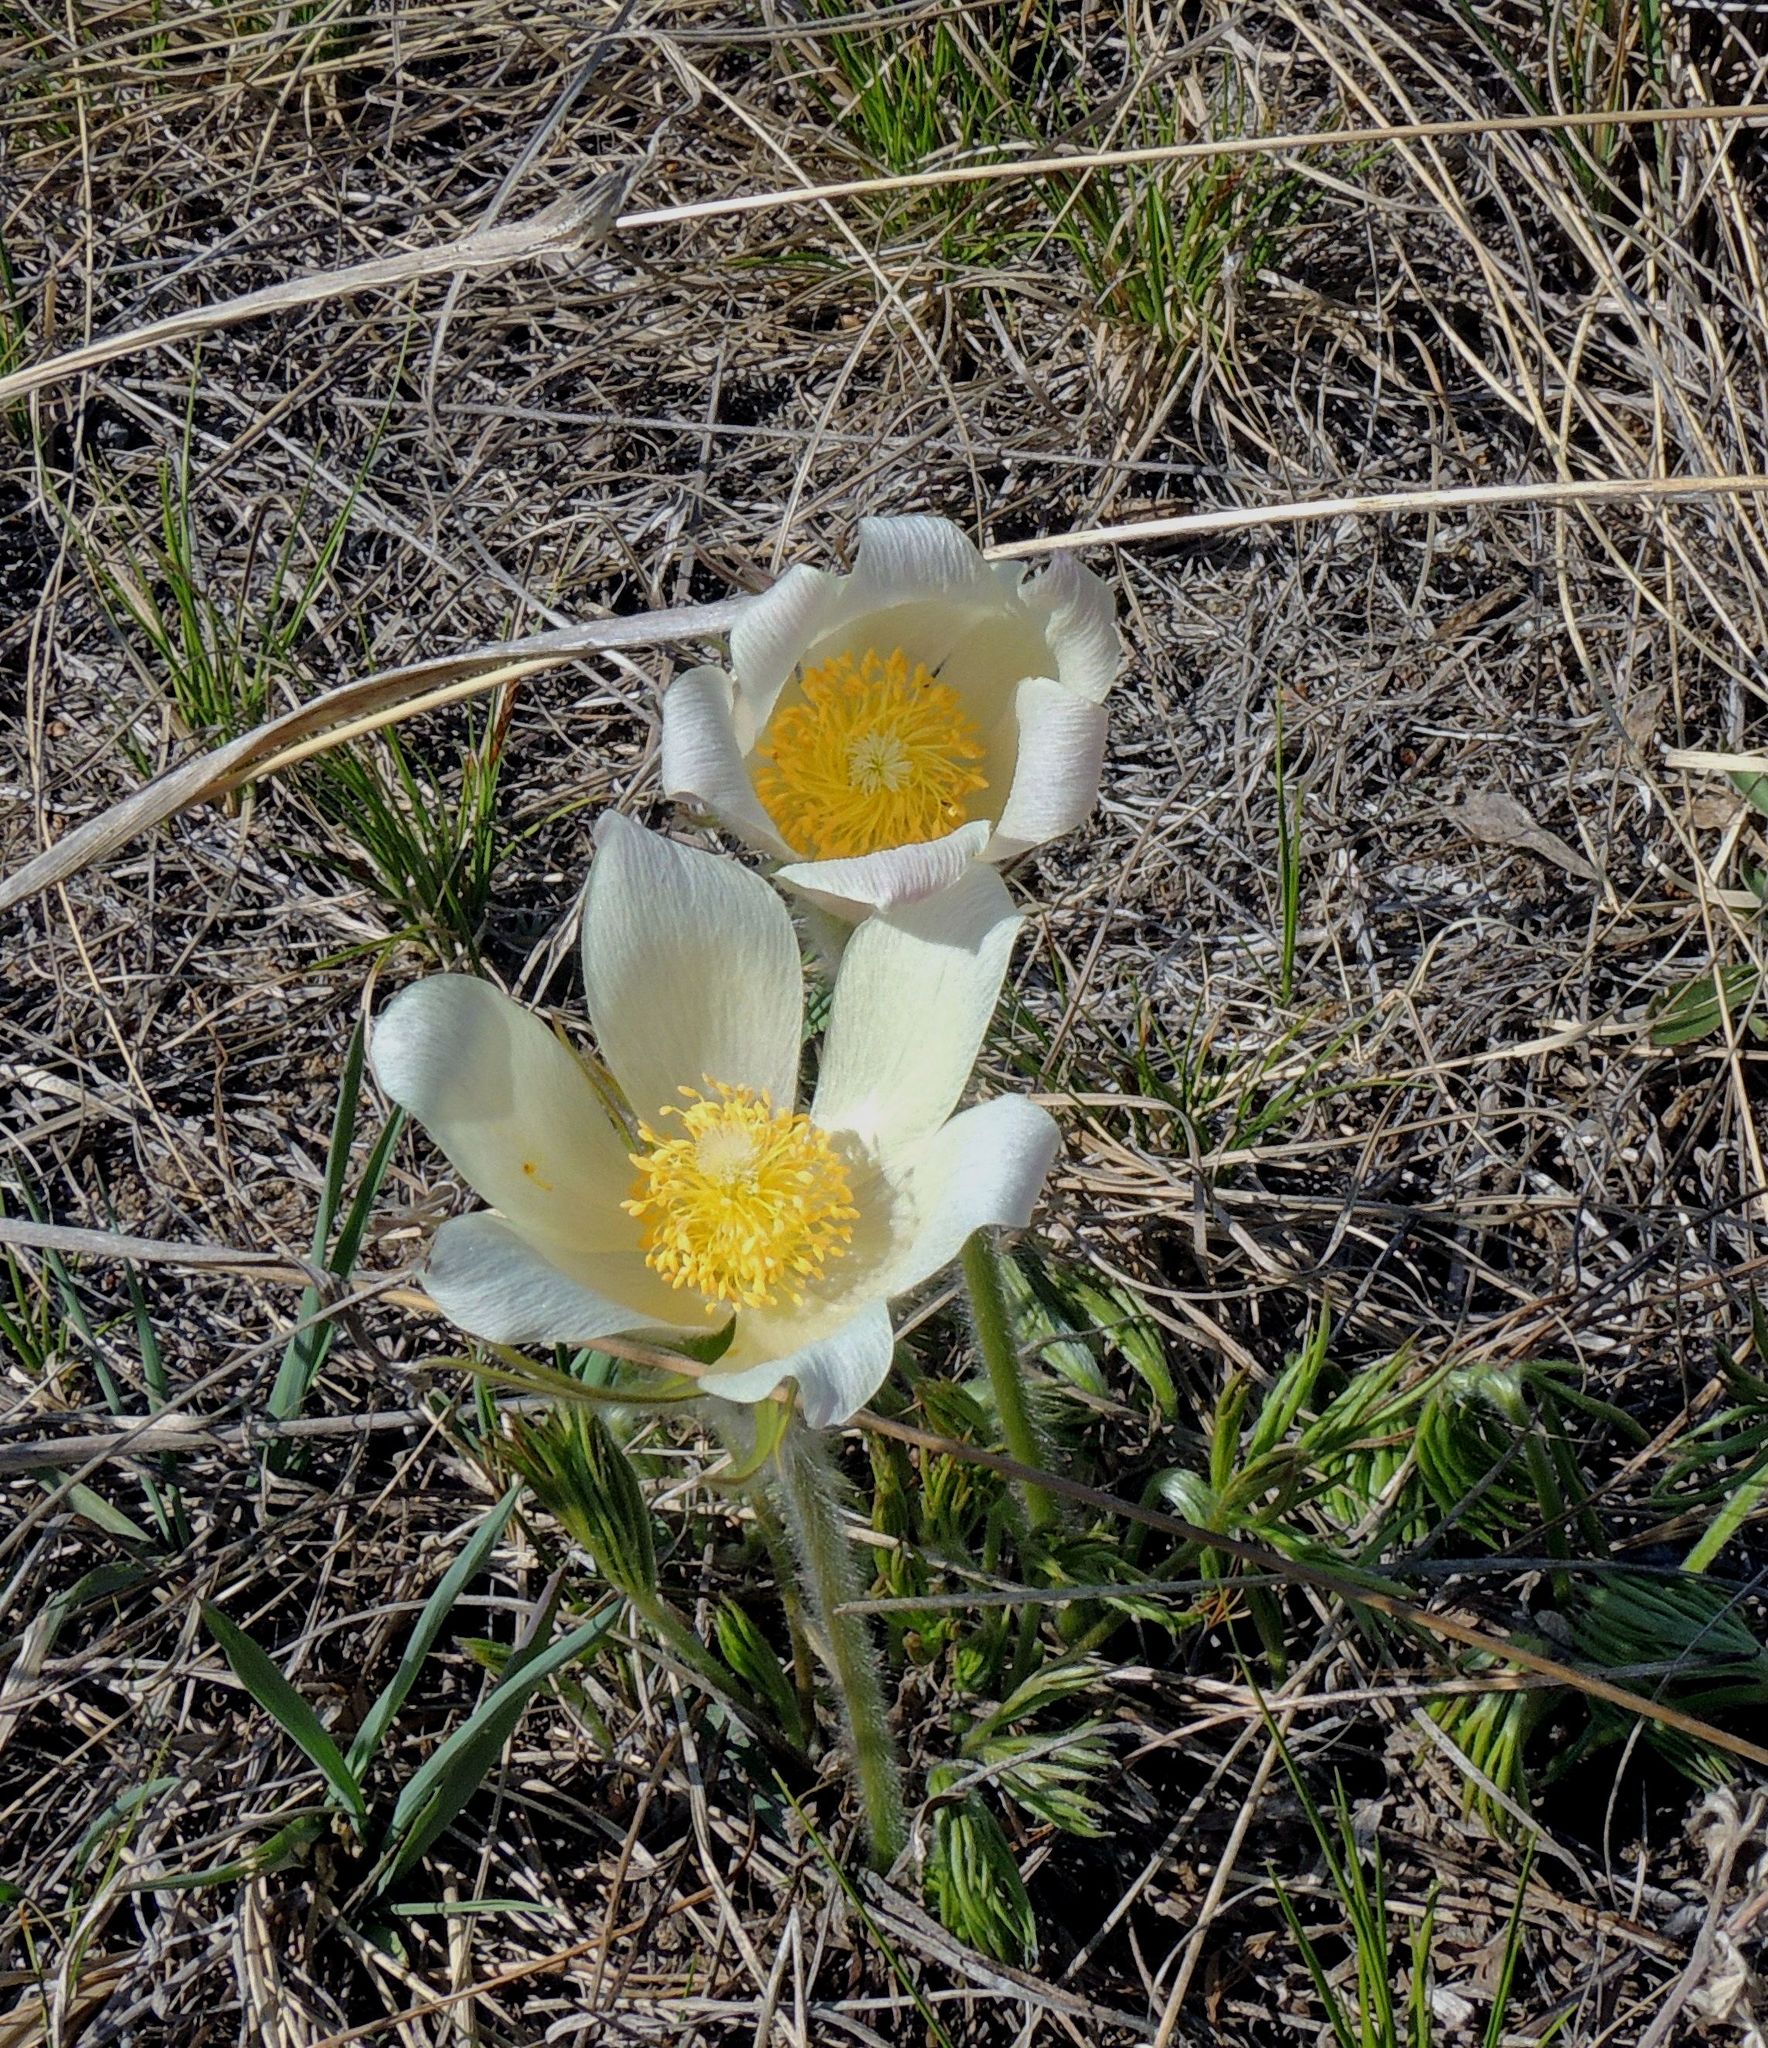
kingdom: Plantae
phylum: Tracheophyta
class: Magnoliopsida
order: Ranunculales
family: Ranunculaceae
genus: Pulsatilla
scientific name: Pulsatilla patens
